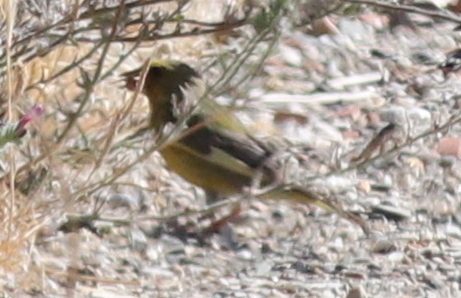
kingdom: Plantae
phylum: Tracheophyta
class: Liliopsida
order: Poales
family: Poaceae
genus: Chloris
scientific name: Chloris chloris
